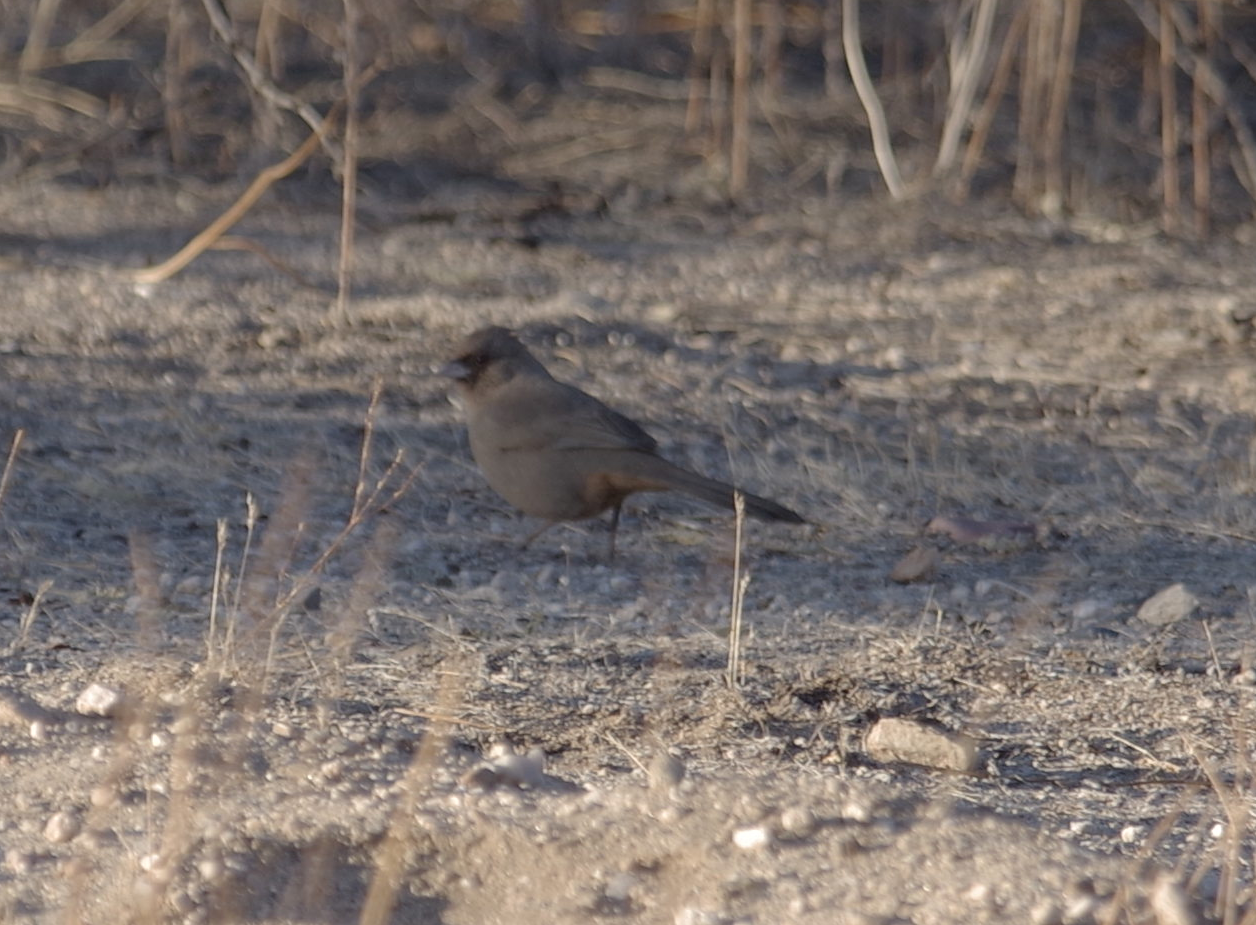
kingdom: Animalia
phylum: Chordata
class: Aves
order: Passeriformes
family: Passerellidae
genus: Melozone
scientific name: Melozone aberti
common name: Abert's towhee
